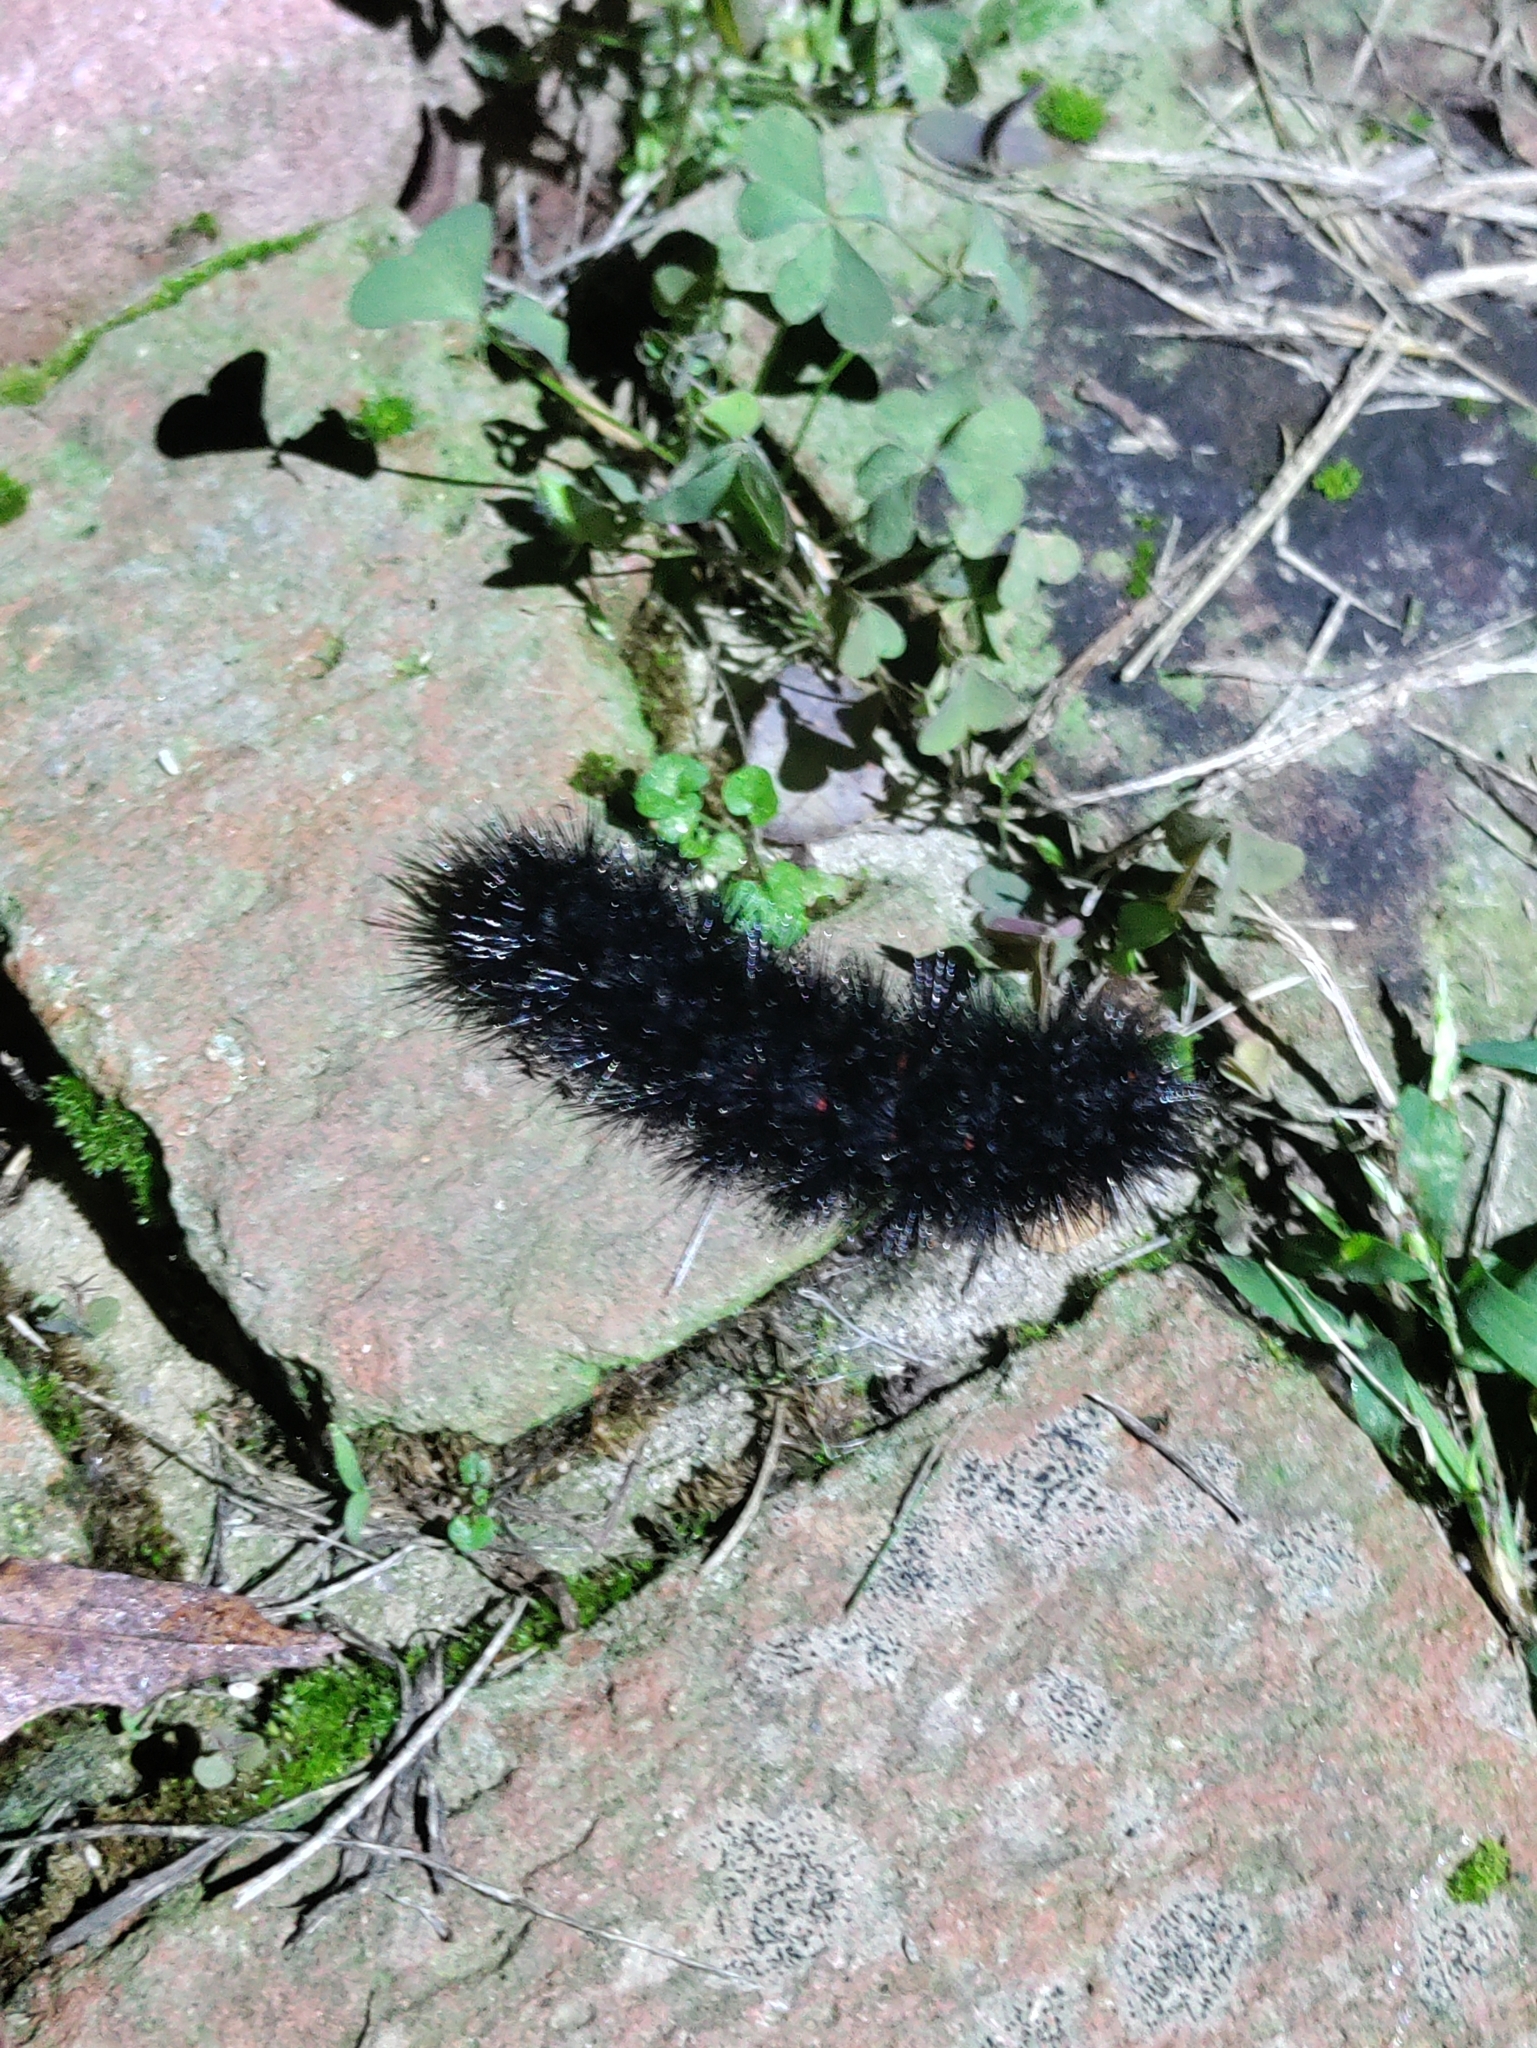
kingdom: Animalia
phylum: Arthropoda
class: Insecta
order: Lepidoptera
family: Erebidae
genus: Hypercompe
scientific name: Hypercompe scribonia
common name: Giant leopard moth
